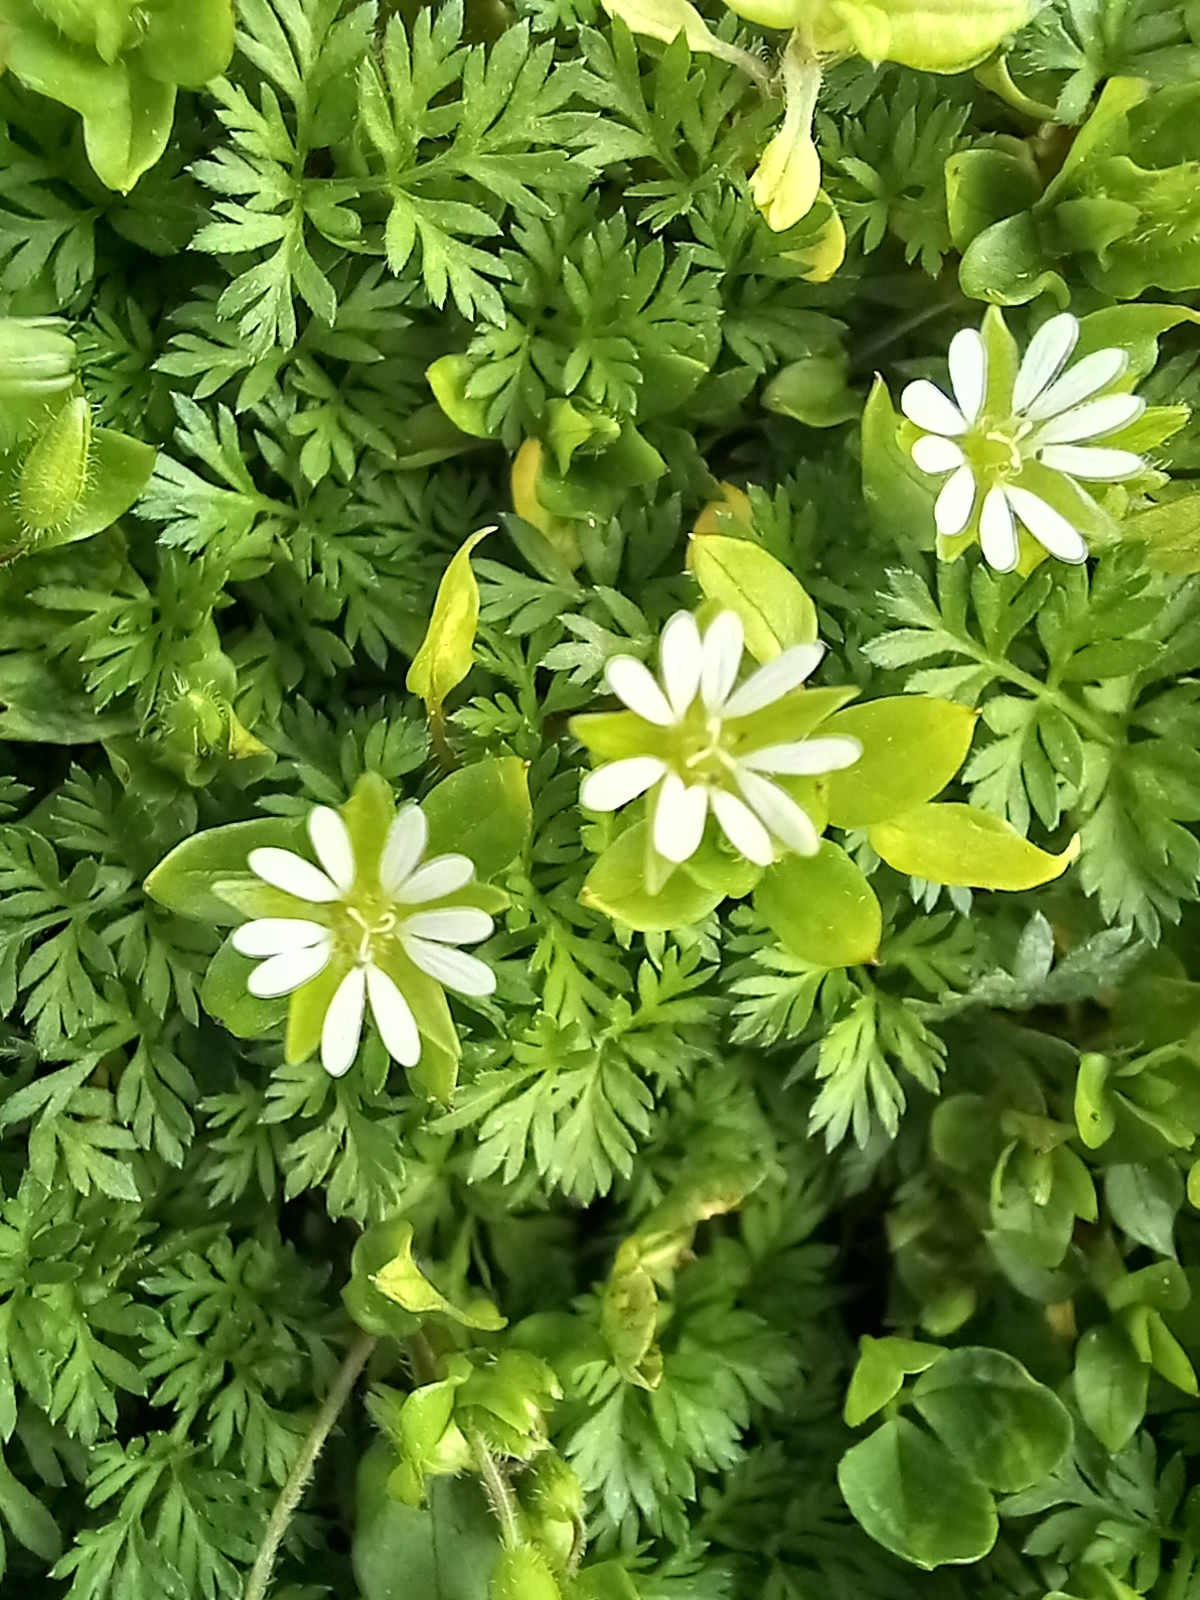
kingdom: Plantae
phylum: Tracheophyta
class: Magnoliopsida
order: Caryophyllales
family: Caryophyllaceae
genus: Stellaria
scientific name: Stellaria media
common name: Common chickweed
